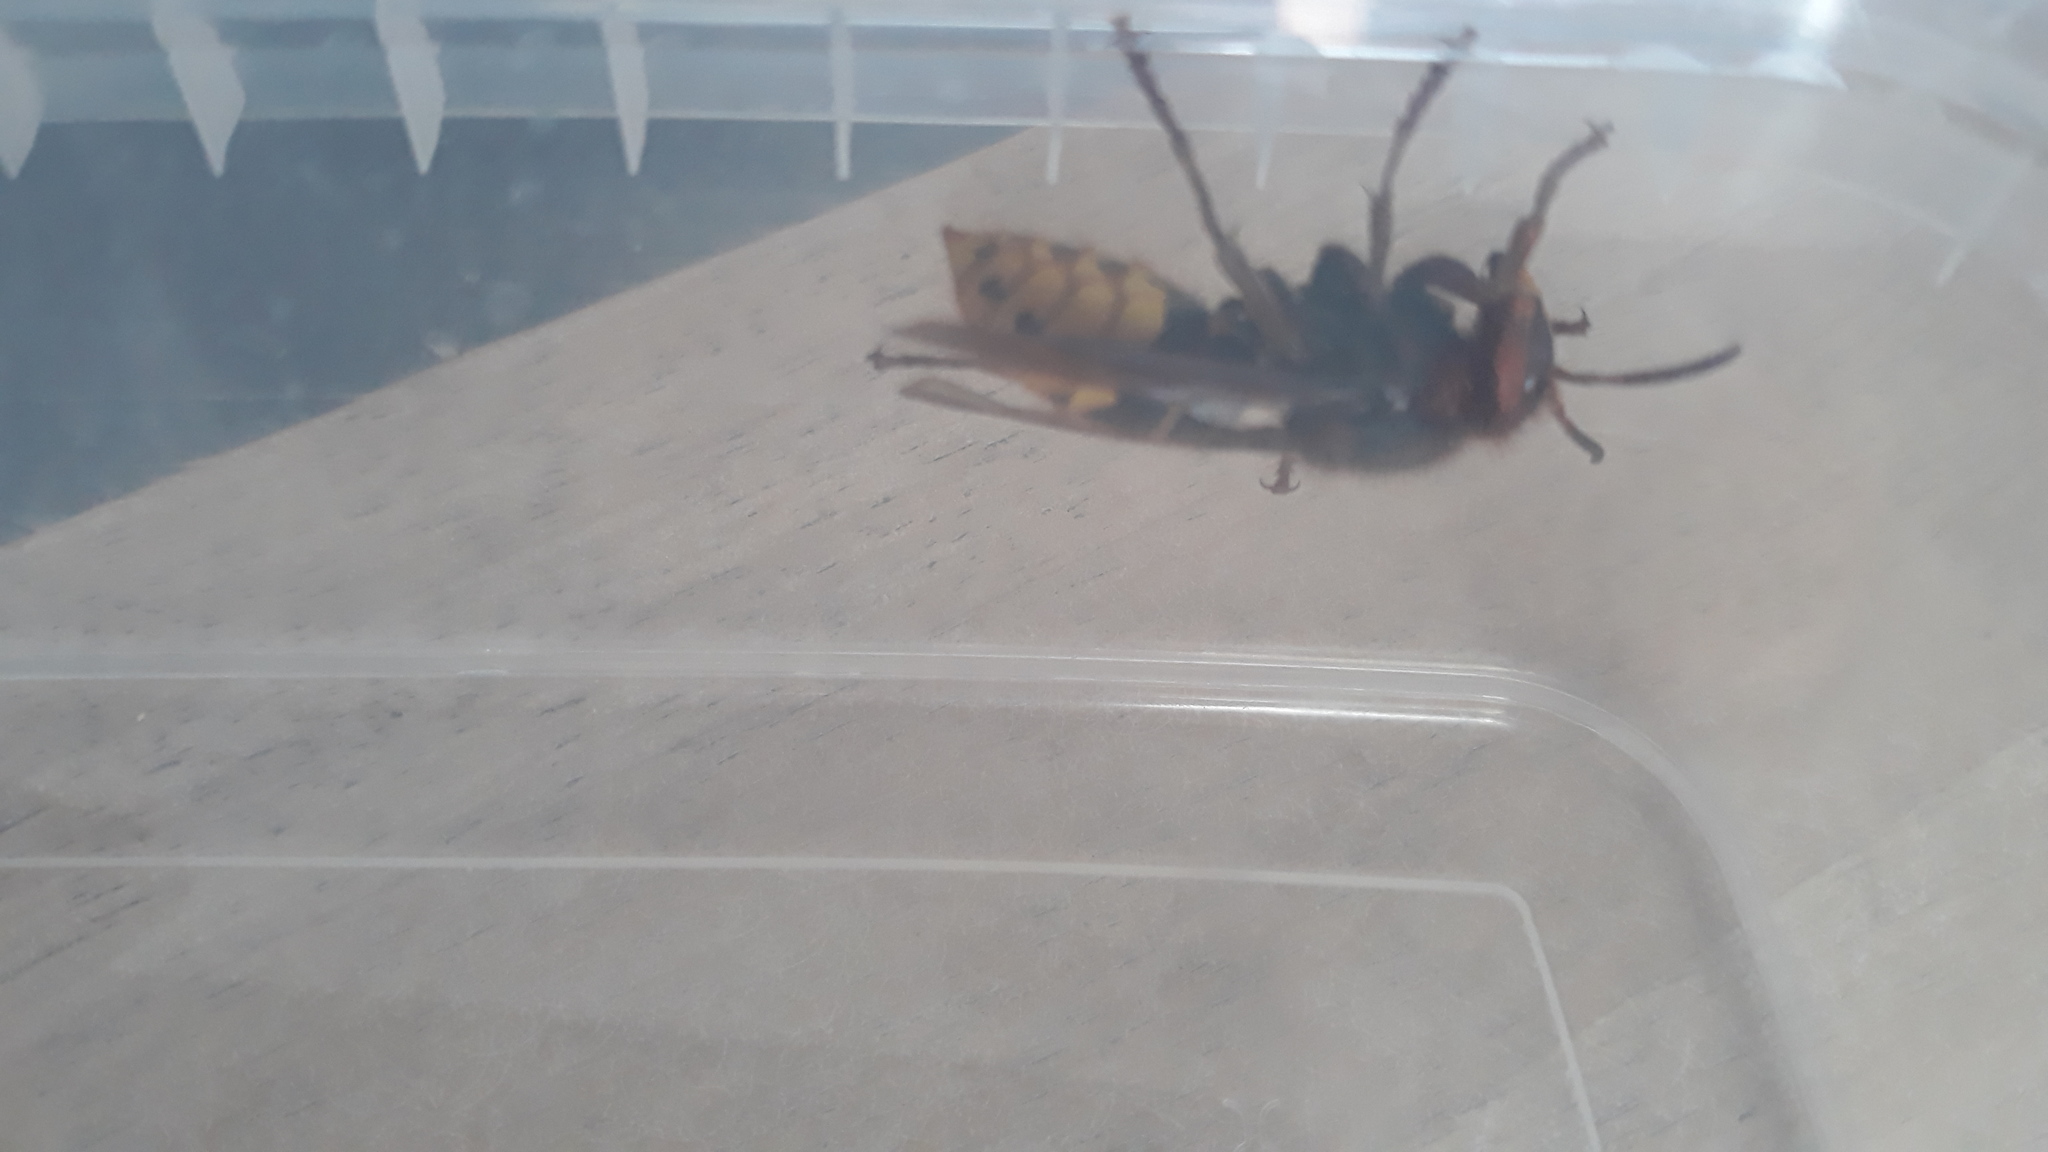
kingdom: Animalia
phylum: Arthropoda
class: Insecta
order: Hymenoptera
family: Vespidae
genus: Vespa
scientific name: Vespa crabro
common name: Hornet
